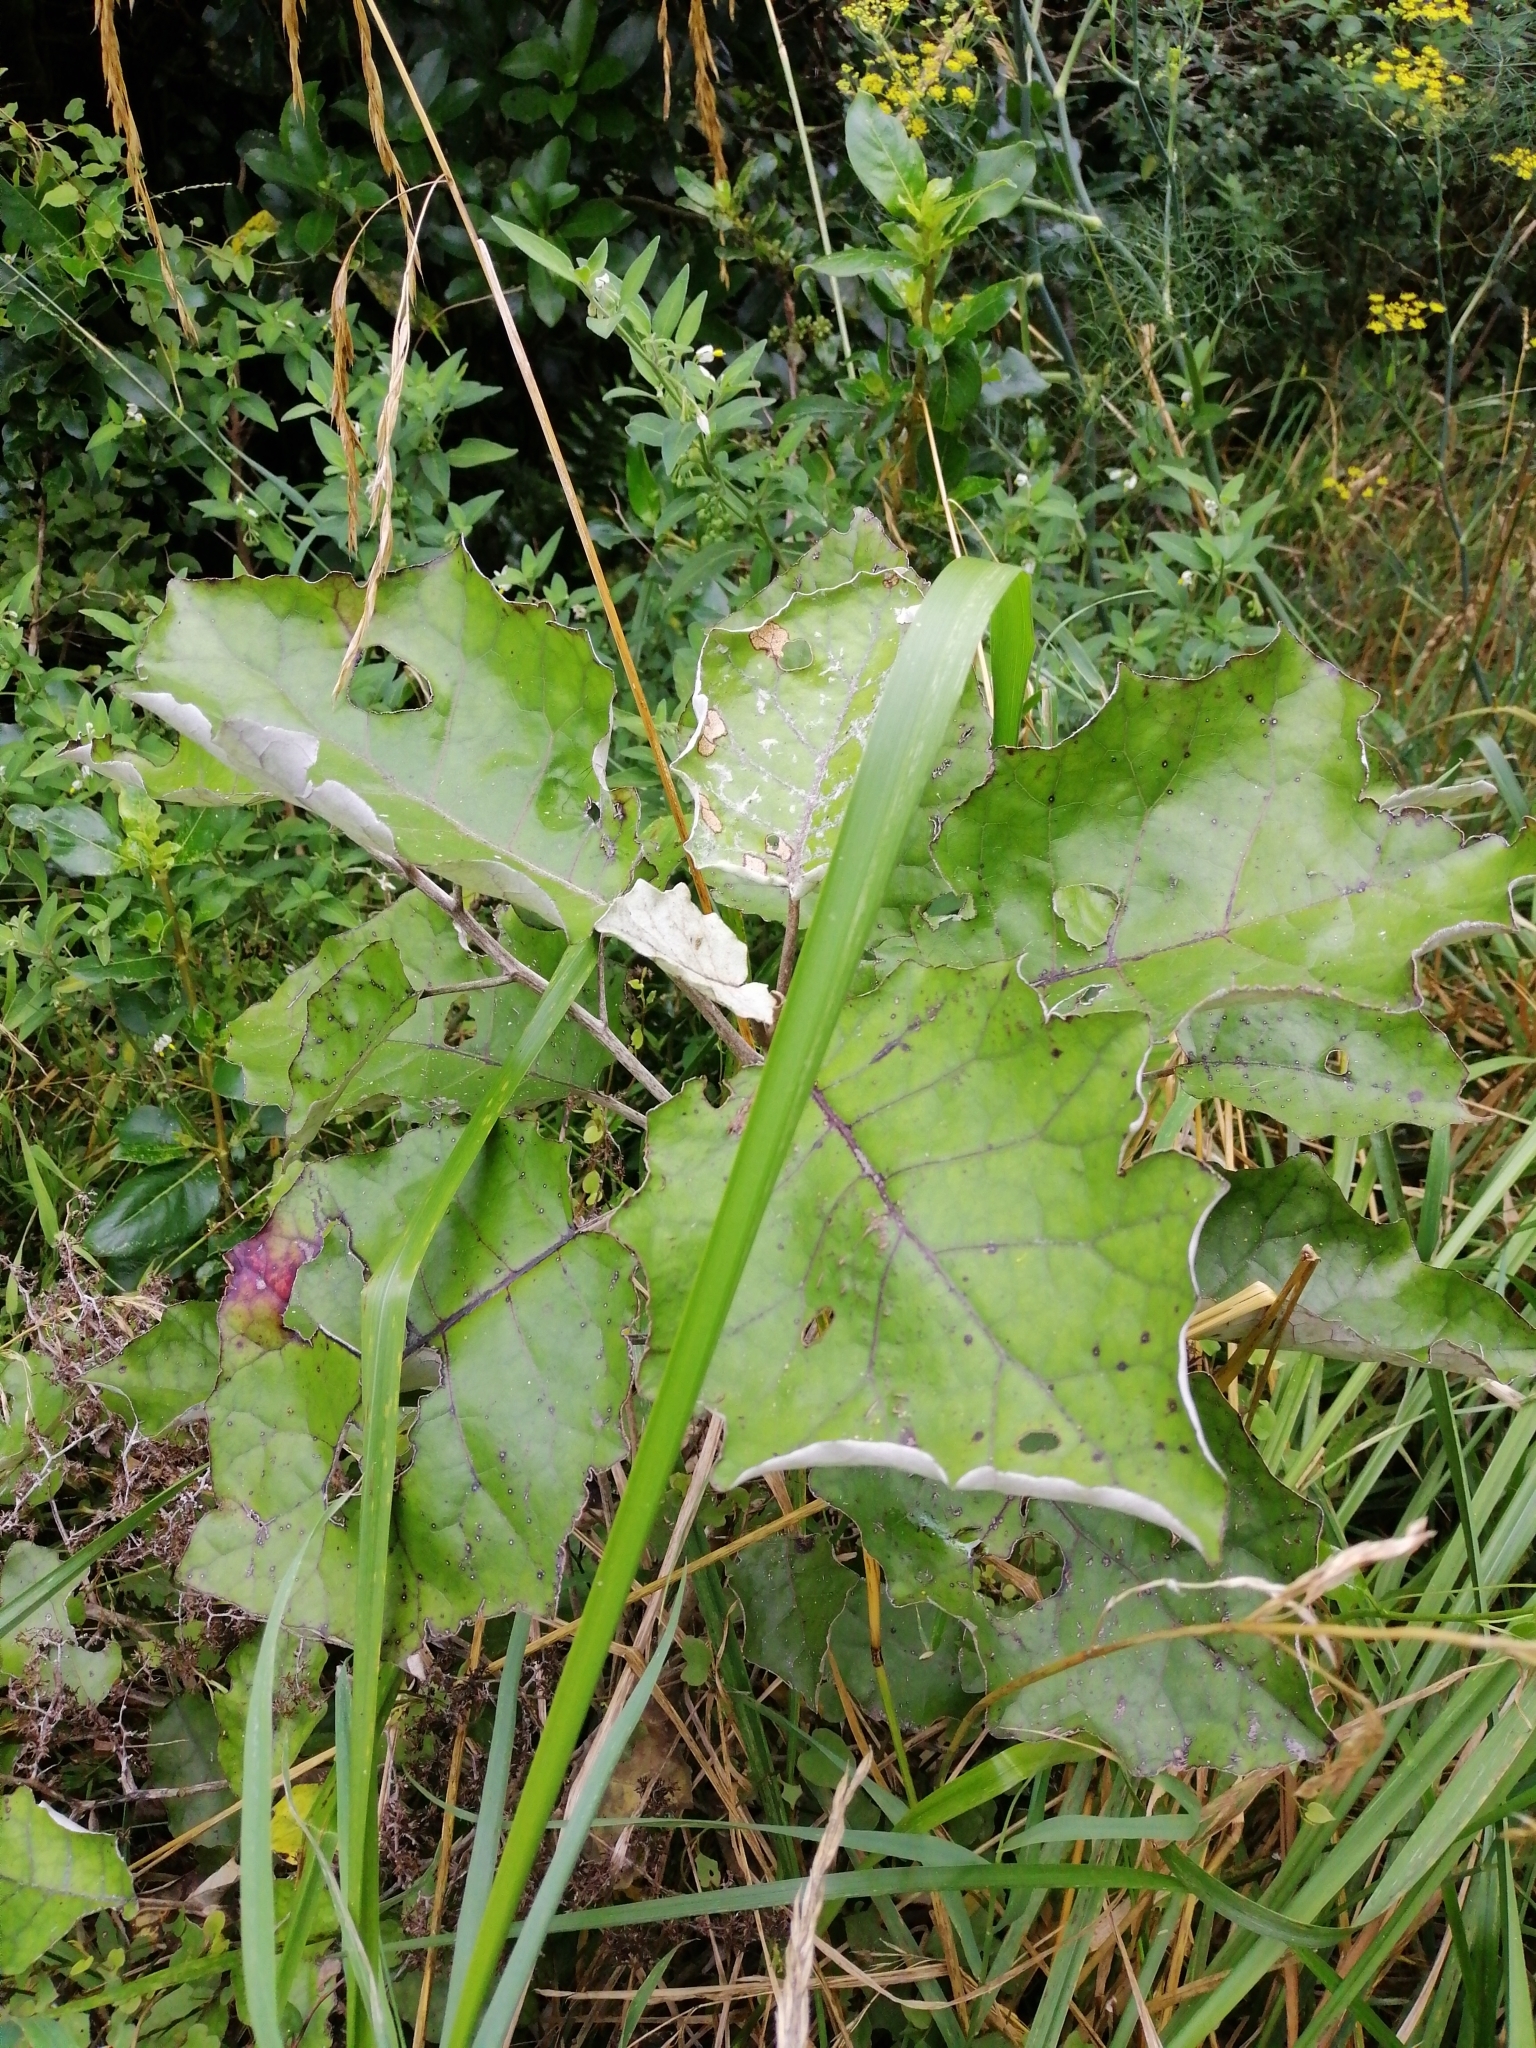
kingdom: Plantae
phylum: Tracheophyta
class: Magnoliopsida
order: Asterales
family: Asteraceae
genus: Brachyglottis
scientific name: Brachyglottis repanda
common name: Hedge ragwort
